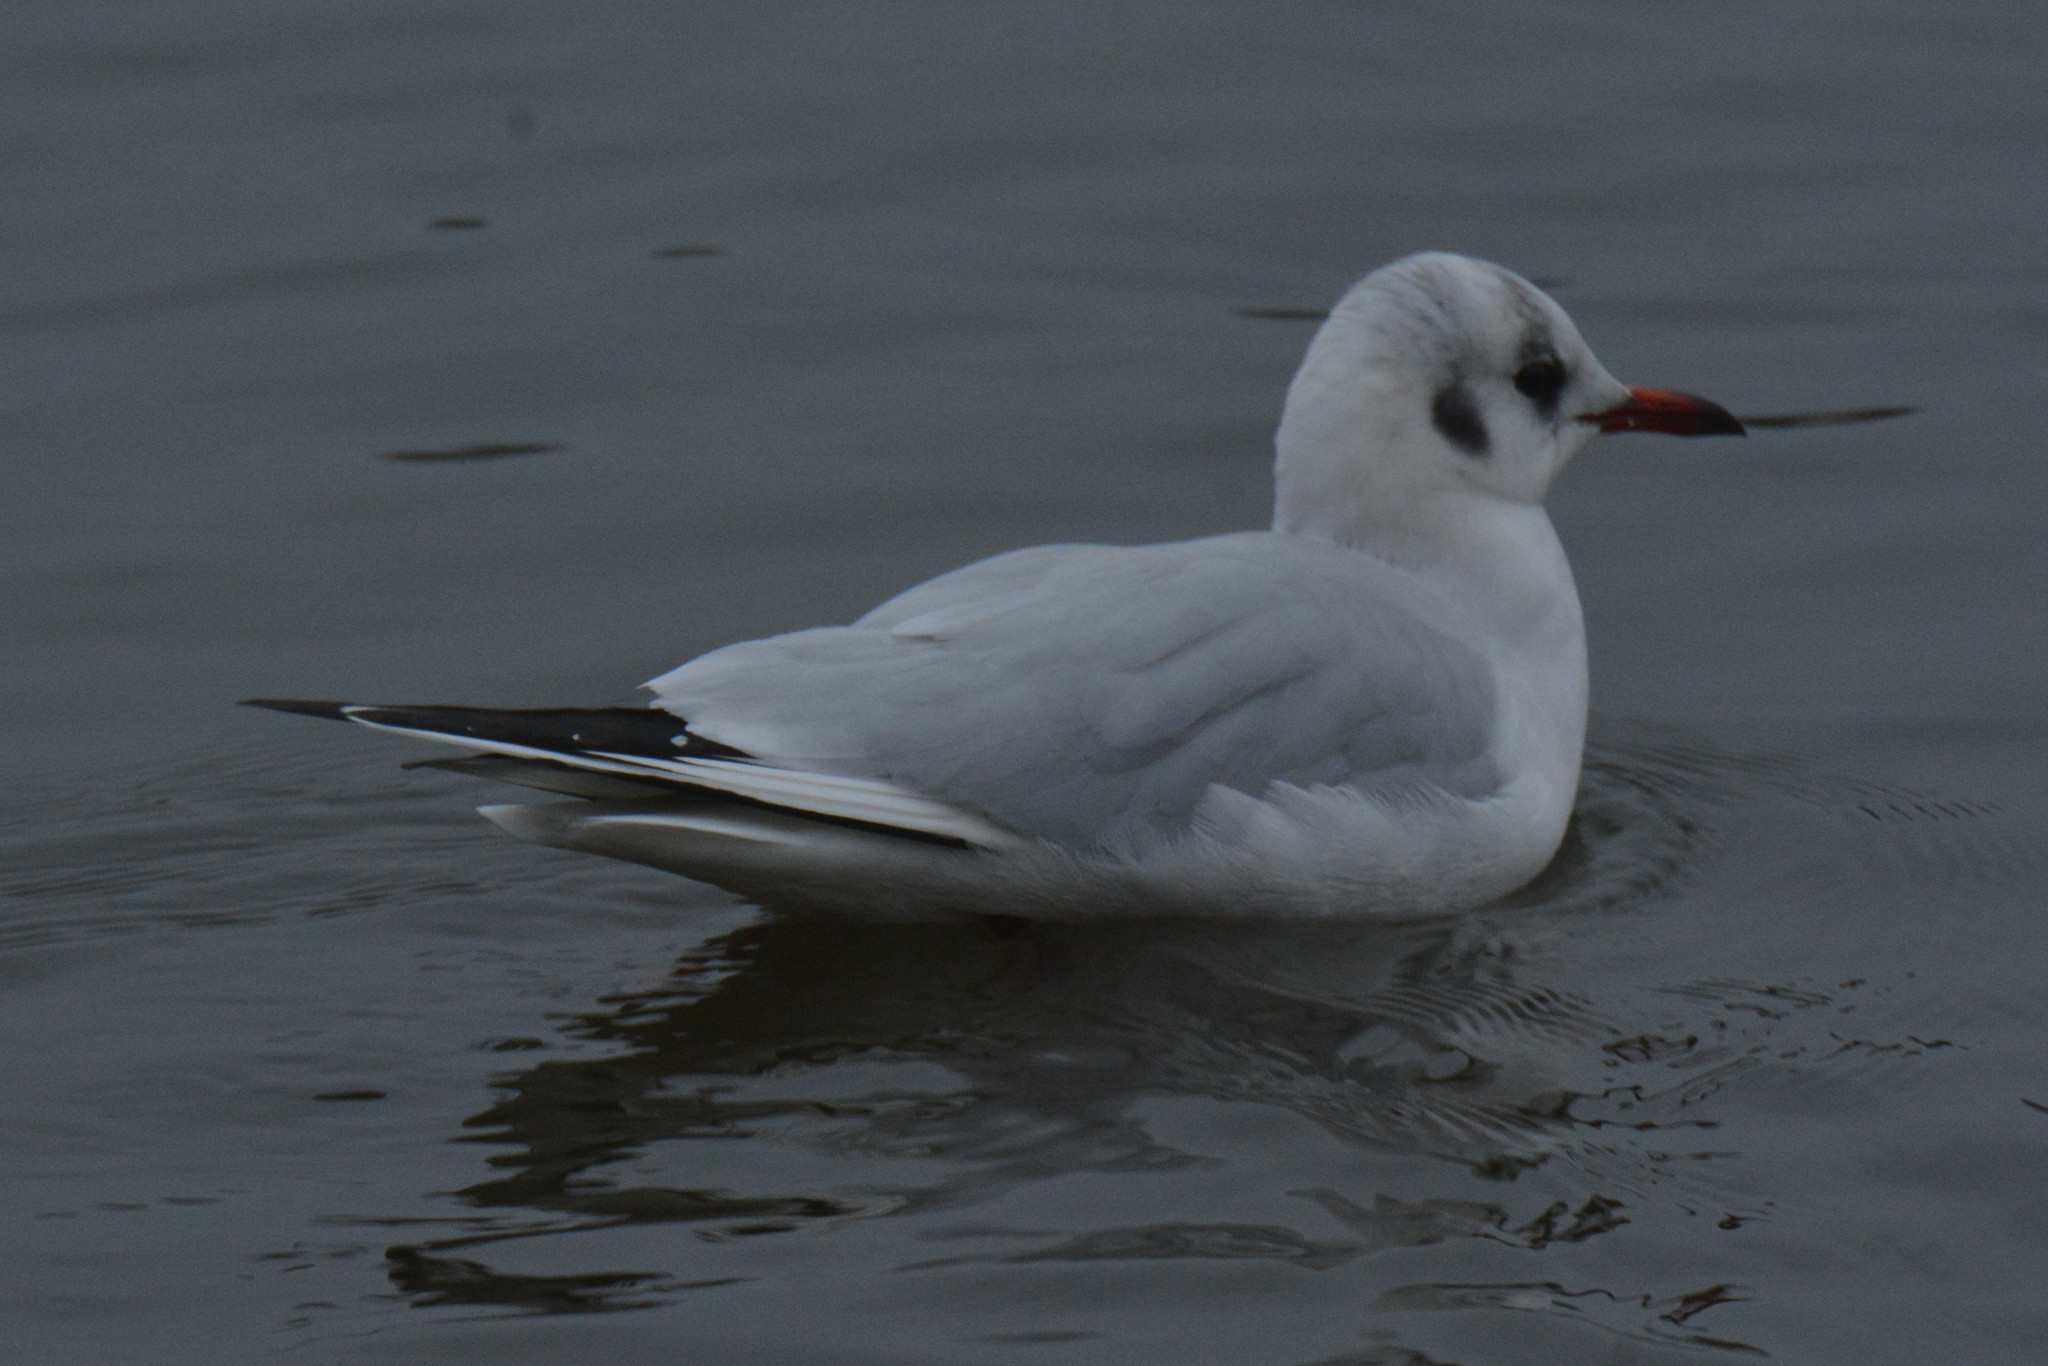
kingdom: Animalia
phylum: Chordata
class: Aves
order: Charadriiformes
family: Laridae
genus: Chroicocephalus
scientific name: Chroicocephalus ridibundus
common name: Black-headed gull
